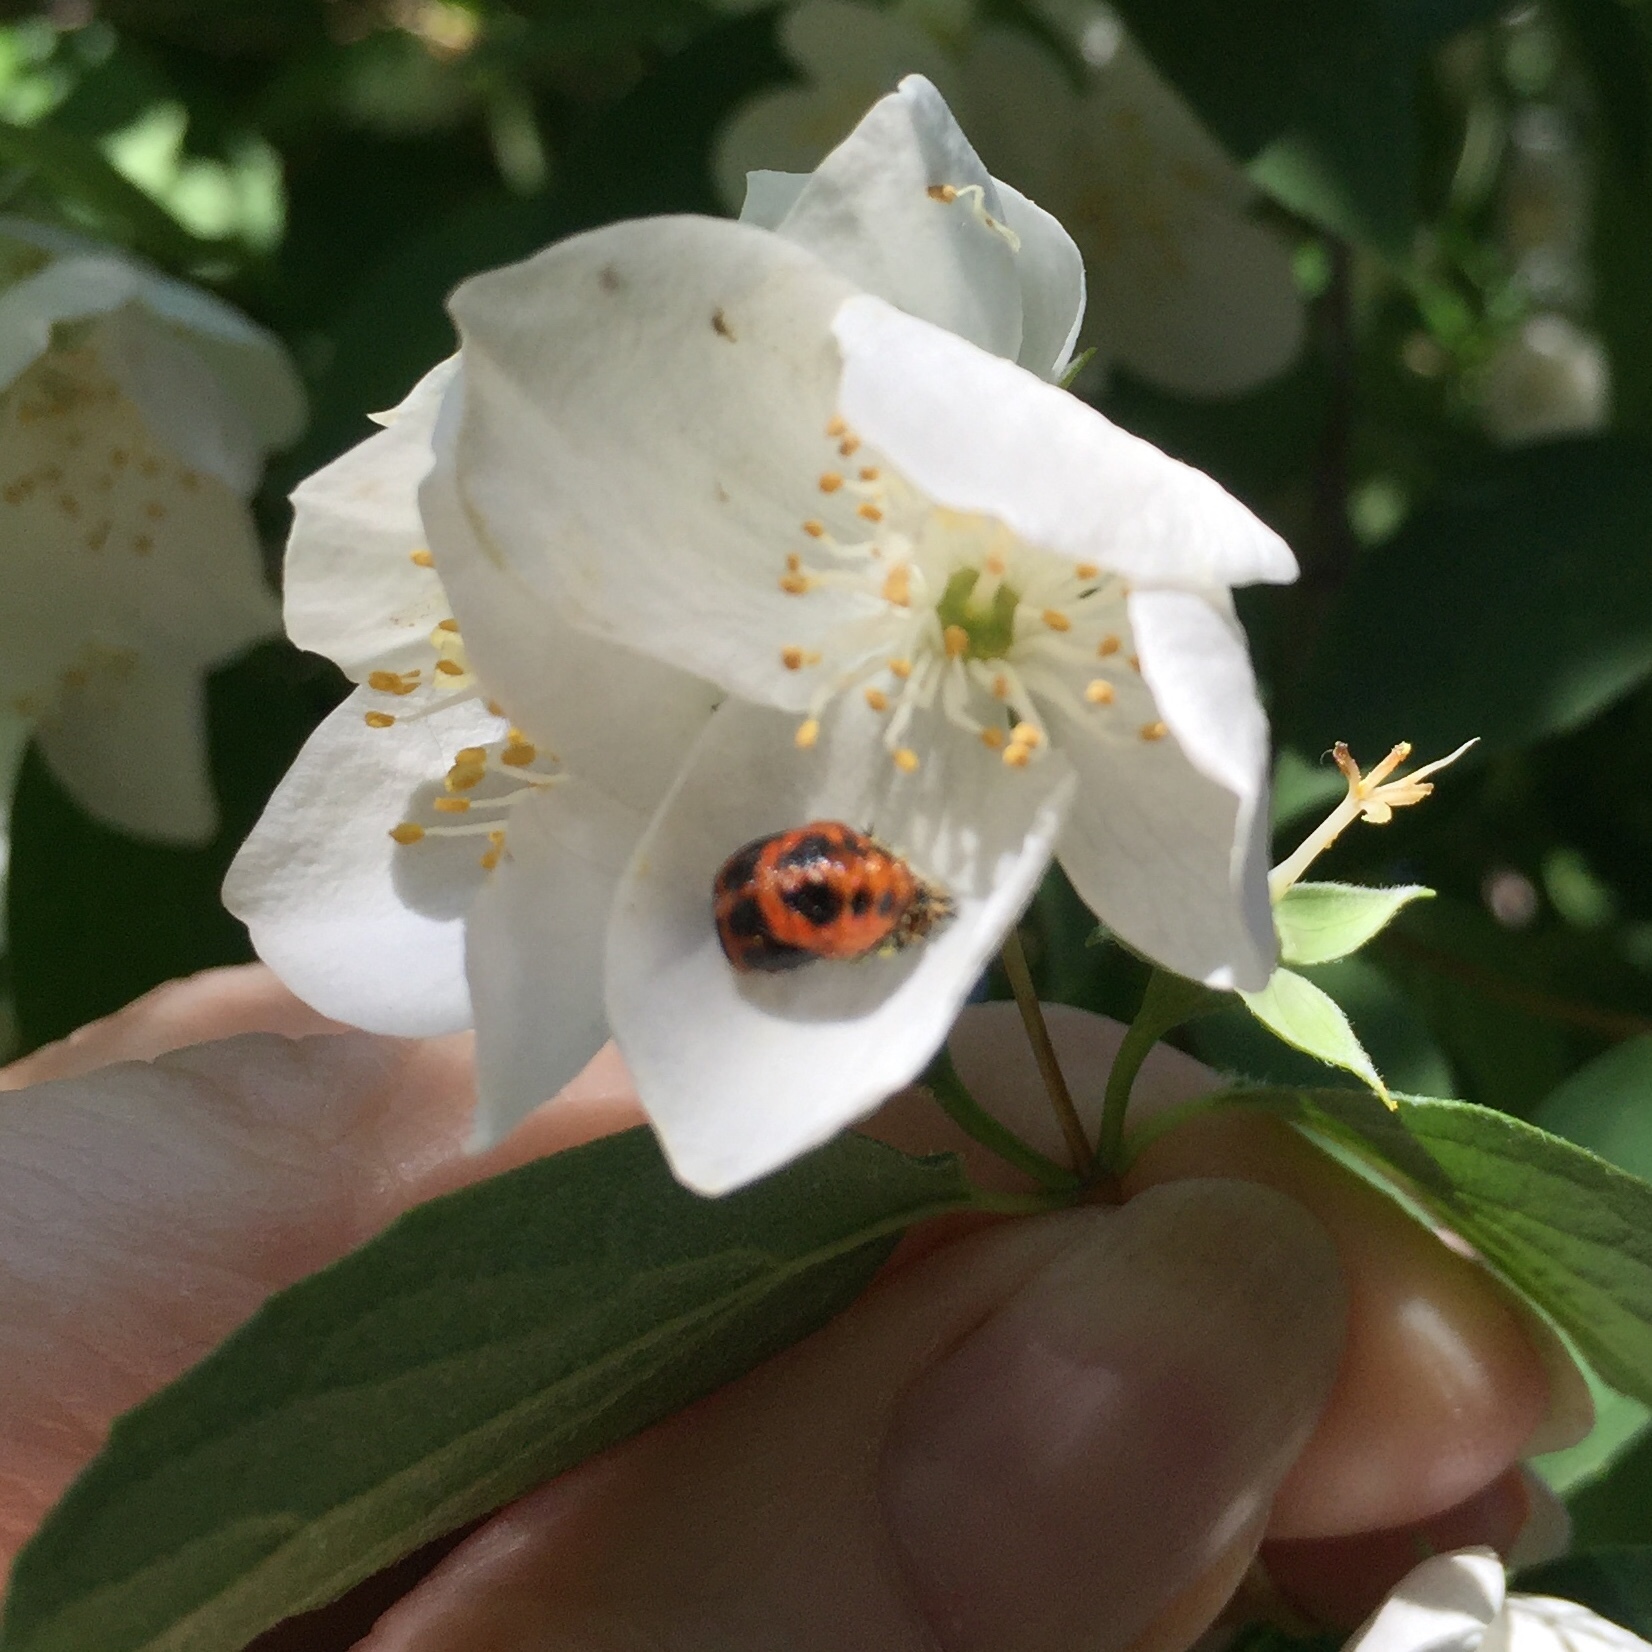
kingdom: Animalia
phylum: Arthropoda
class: Insecta
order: Coleoptera
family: Coccinellidae
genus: Harmonia
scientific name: Harmonia axyridis
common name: Harlequin ladybird
